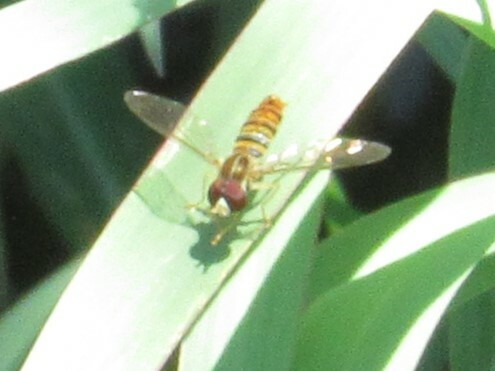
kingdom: Animalia
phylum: Arthropoda
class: Insecta
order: Diptera
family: Syrphidae
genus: Toxomerus
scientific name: Toxomerus politus
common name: Maize calligrapher
